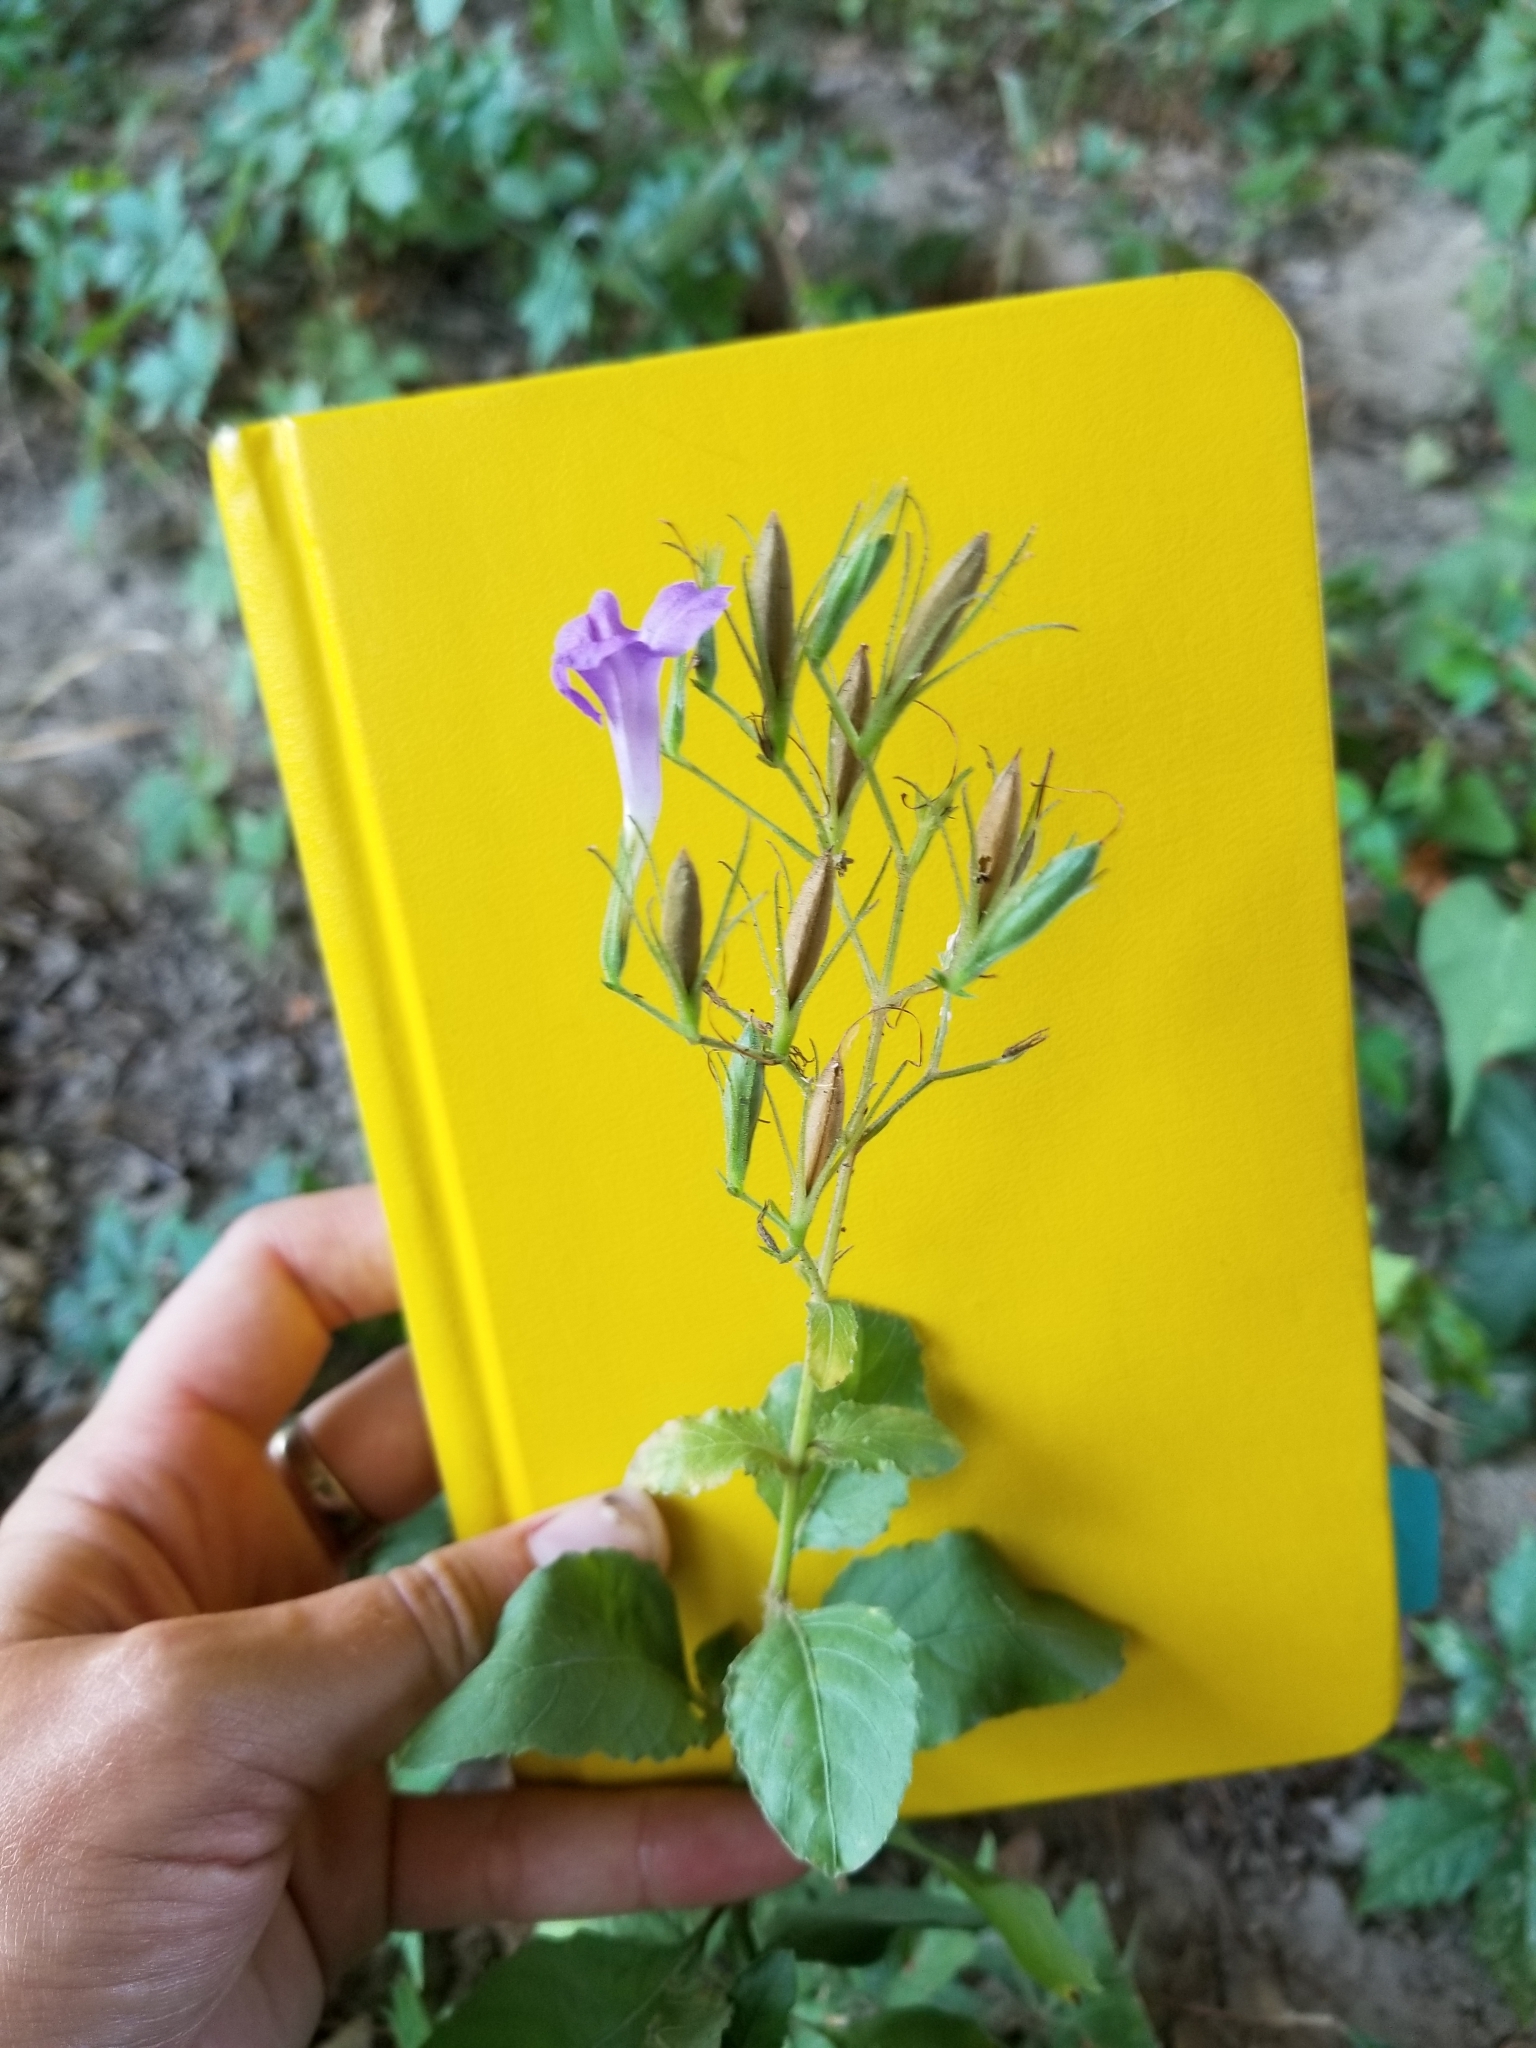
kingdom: Plantae
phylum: Tracheophyta
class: Magnoliopsida
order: Lamiales
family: Acanthaceae
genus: Ruellia
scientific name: Ruellia ciliatiflora
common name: Hairyflower wild petunia
